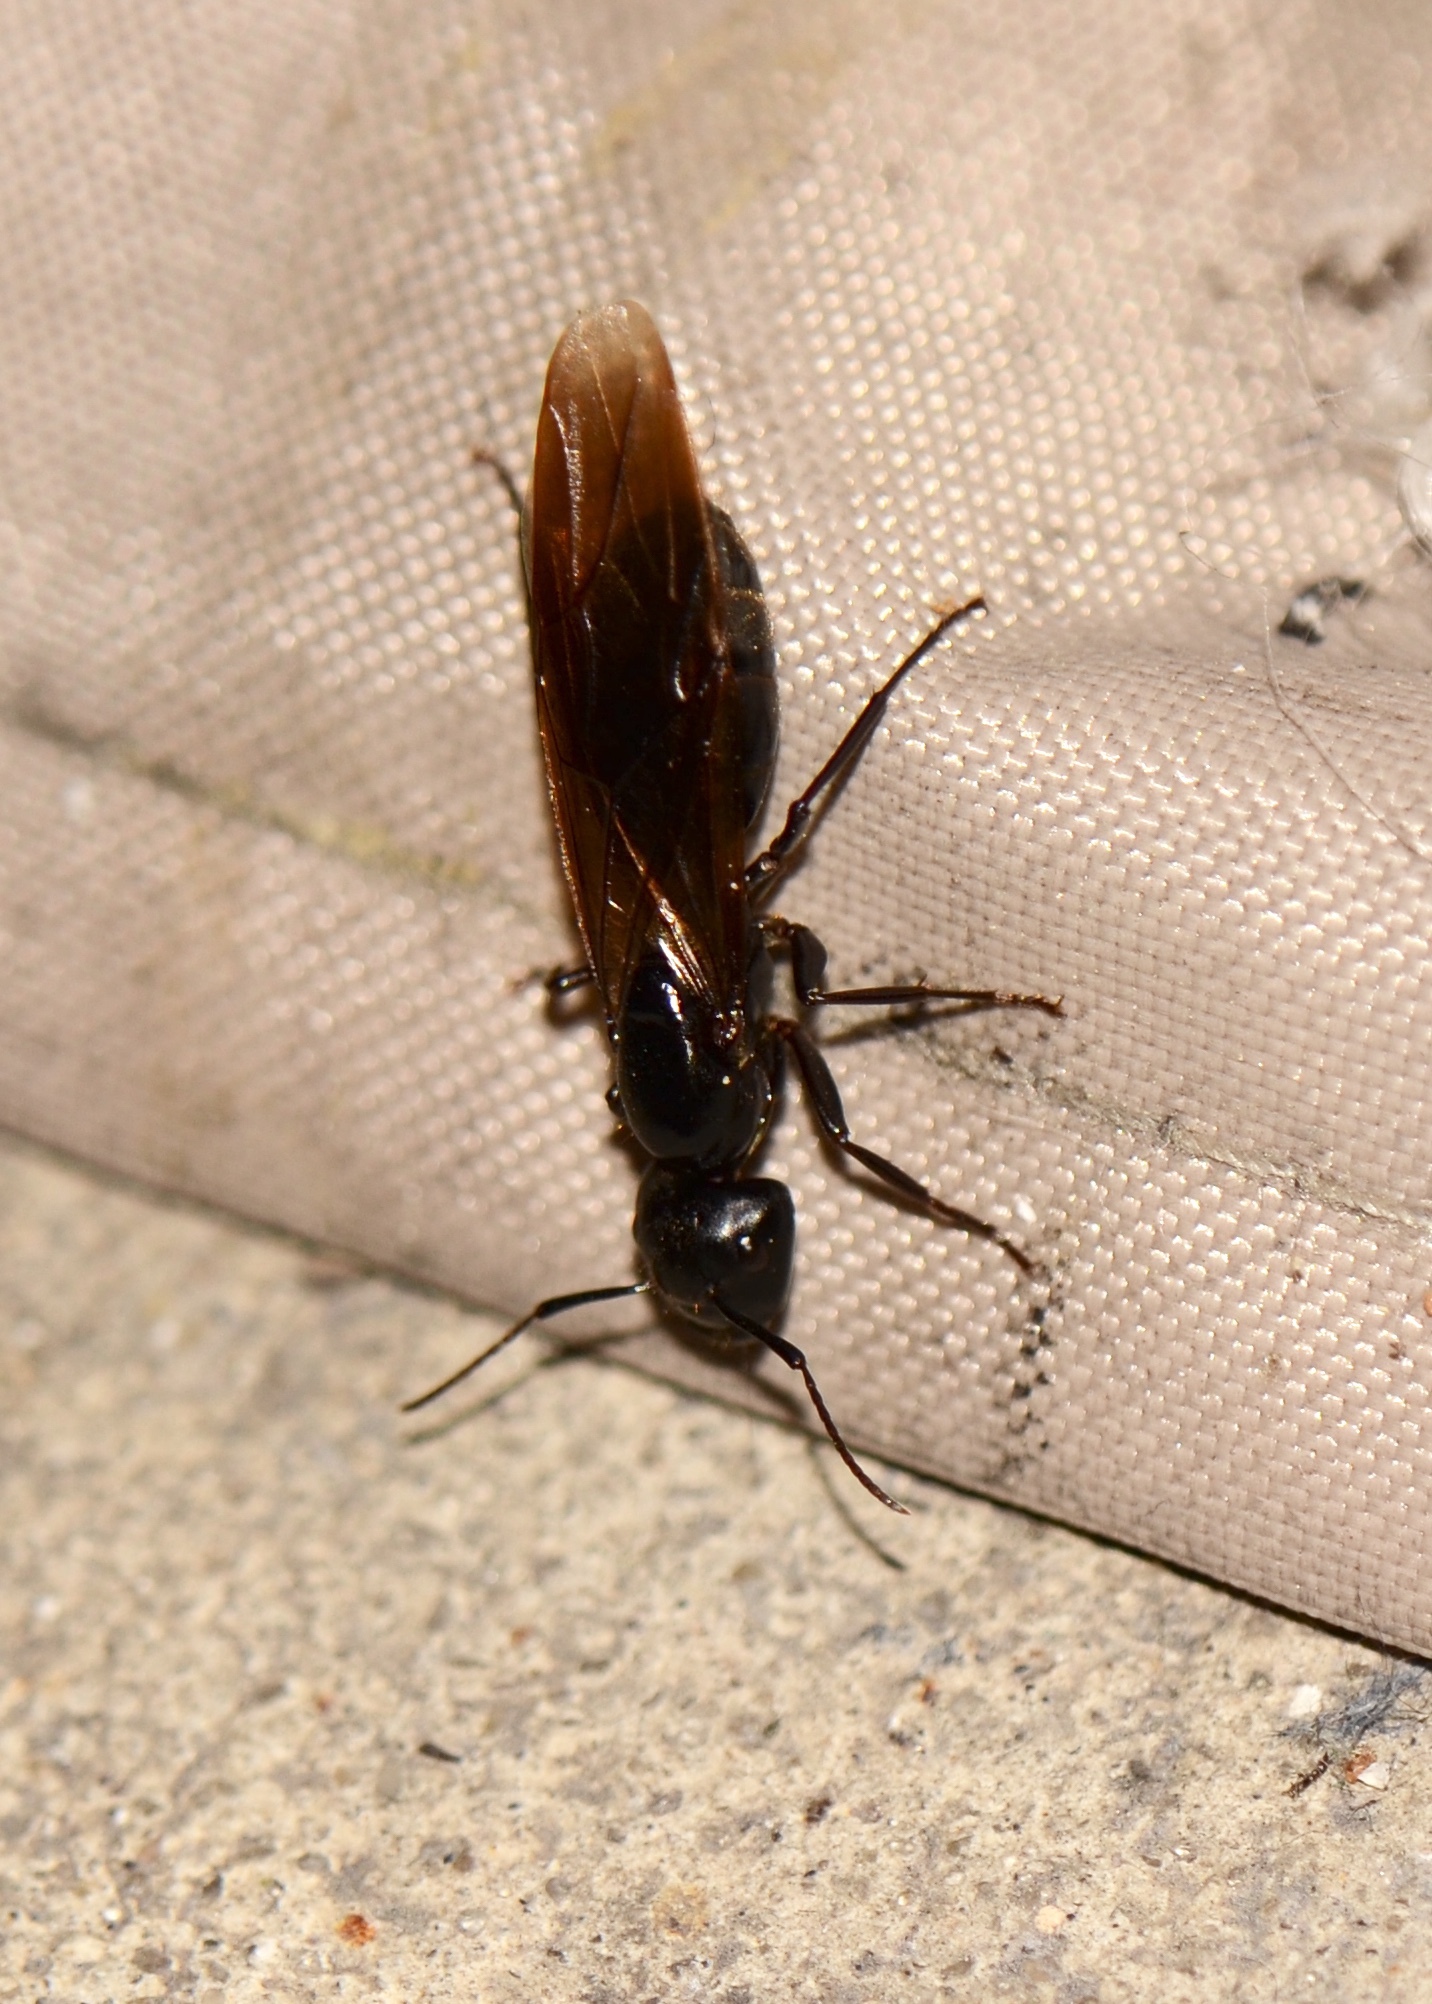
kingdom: Animalia
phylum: Arthropoda
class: Insecta
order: Hymenoptera
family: Formicidae
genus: Camponotus
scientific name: Camponotus pennsylvanicus
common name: Black carpenter ant
